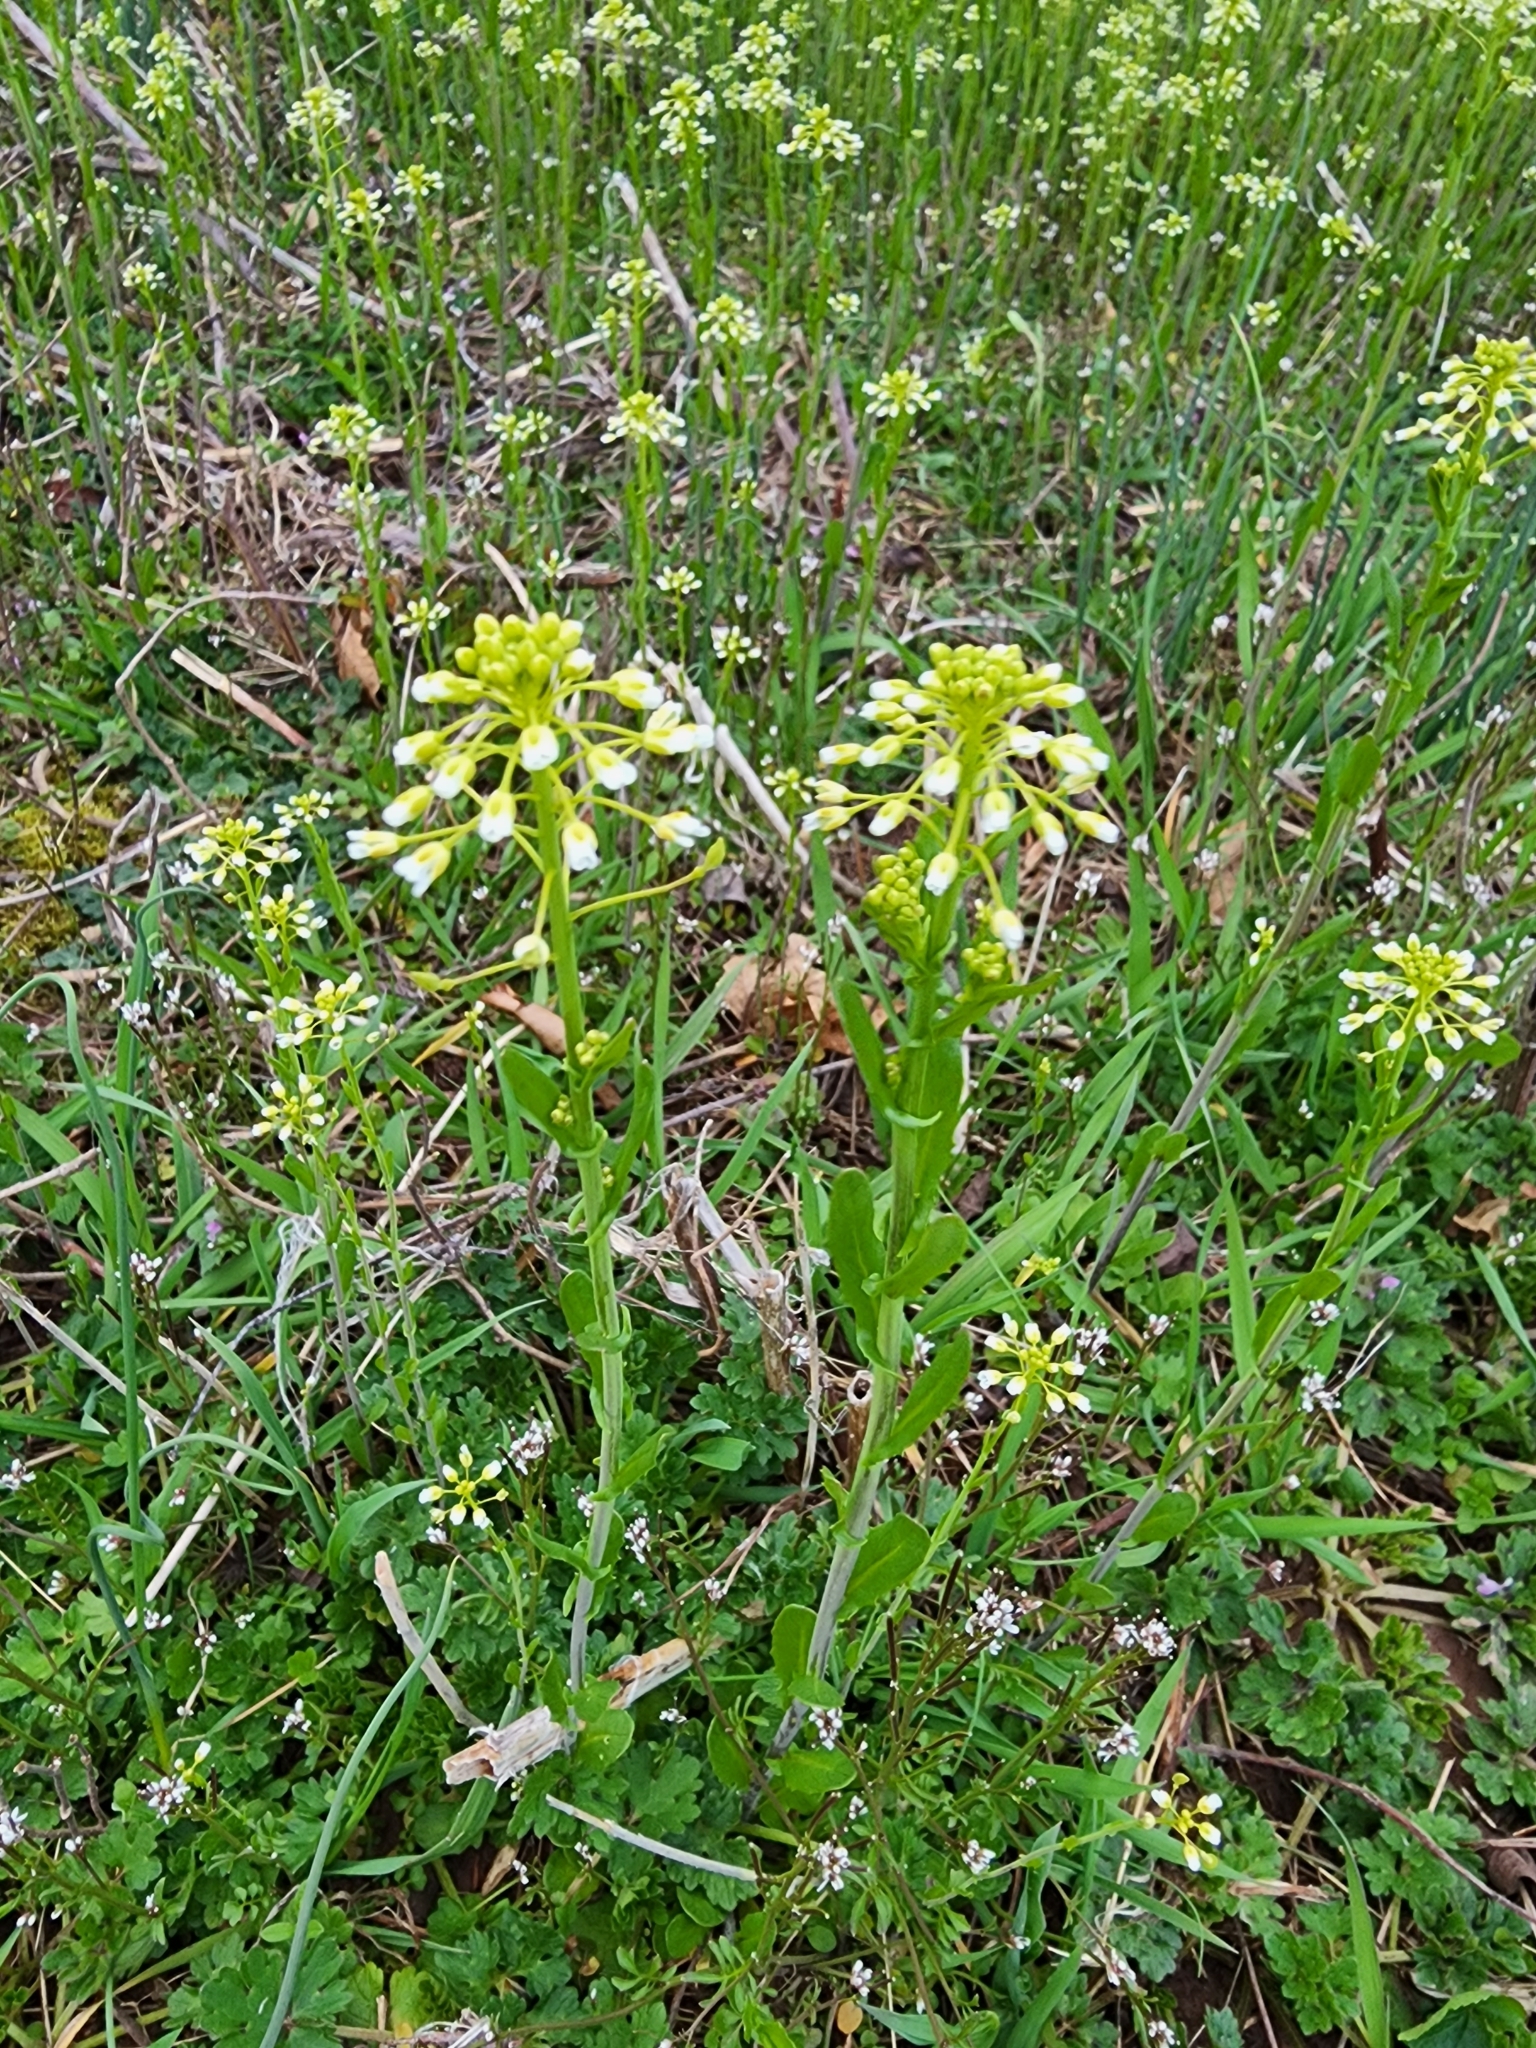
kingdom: Plantae
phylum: Tracheophyta
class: Magnoliopsida
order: Brassicales
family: Brassicaceae
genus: Mummenhoffia
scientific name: Mummenhoffia alliacea
